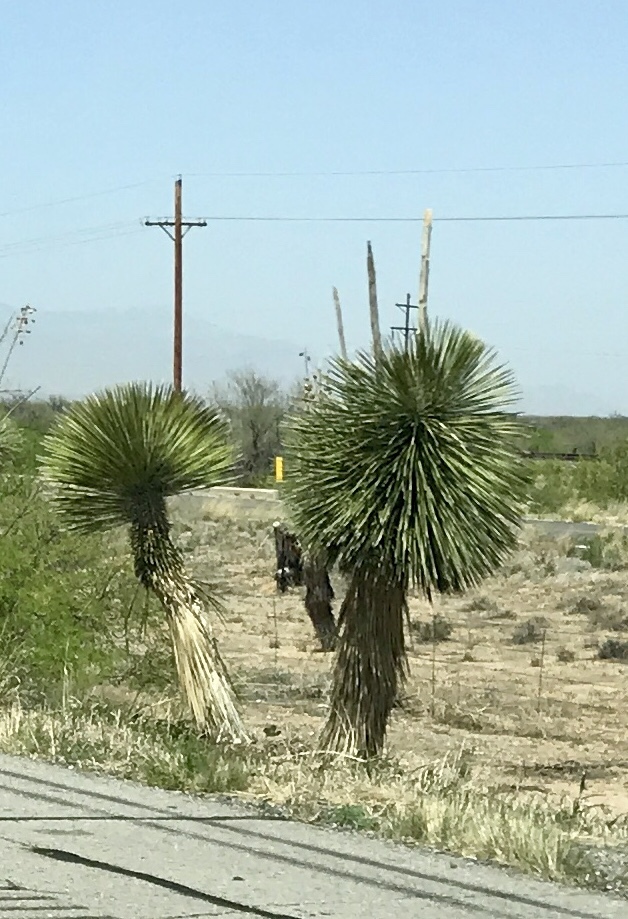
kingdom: Plantae
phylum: Tracheophyta
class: Liliopsida
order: Asparagales
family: Asparagaceae
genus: Yucca
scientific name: Yucca elata
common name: Palmella
